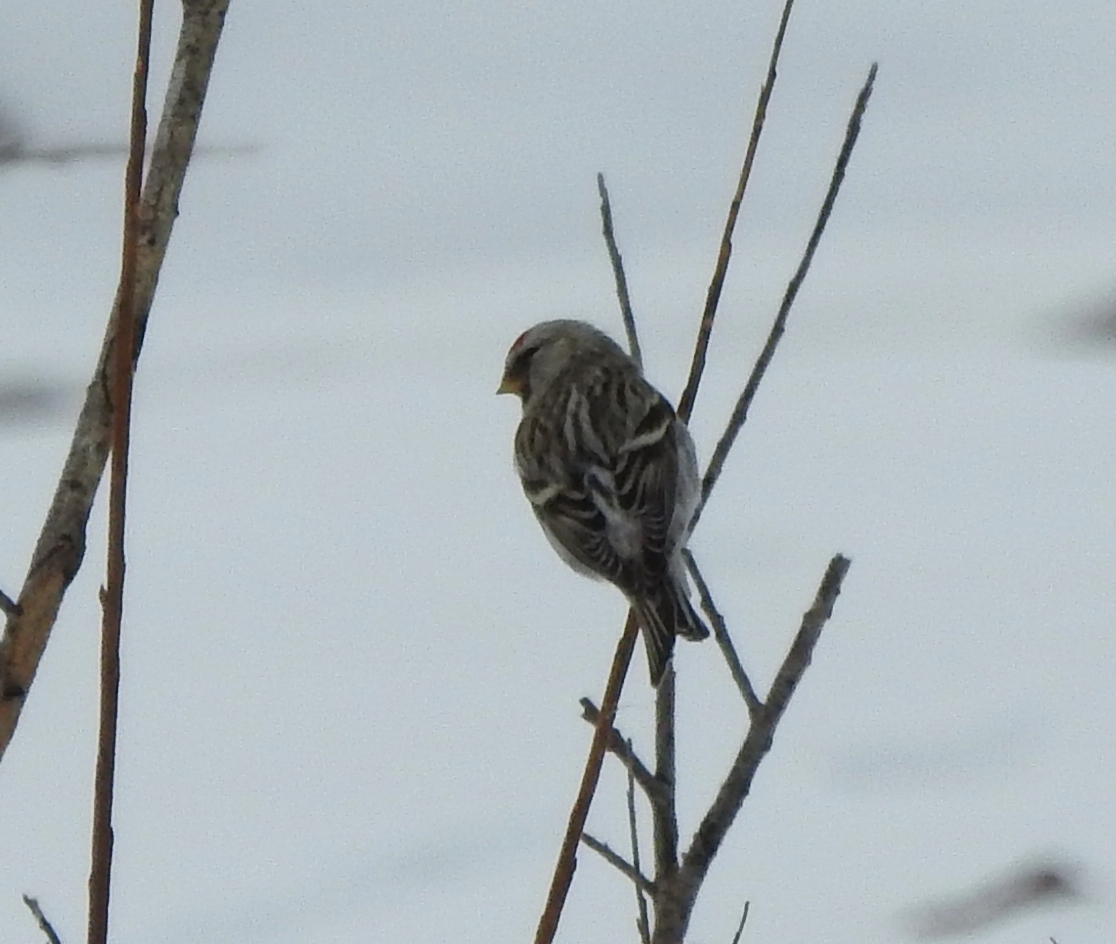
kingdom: Animalia
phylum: Chordata
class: Aves
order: Passeriformes
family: Fringillidae
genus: Acanthis
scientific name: Acanthis hornemanni
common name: Arctic redpoll
